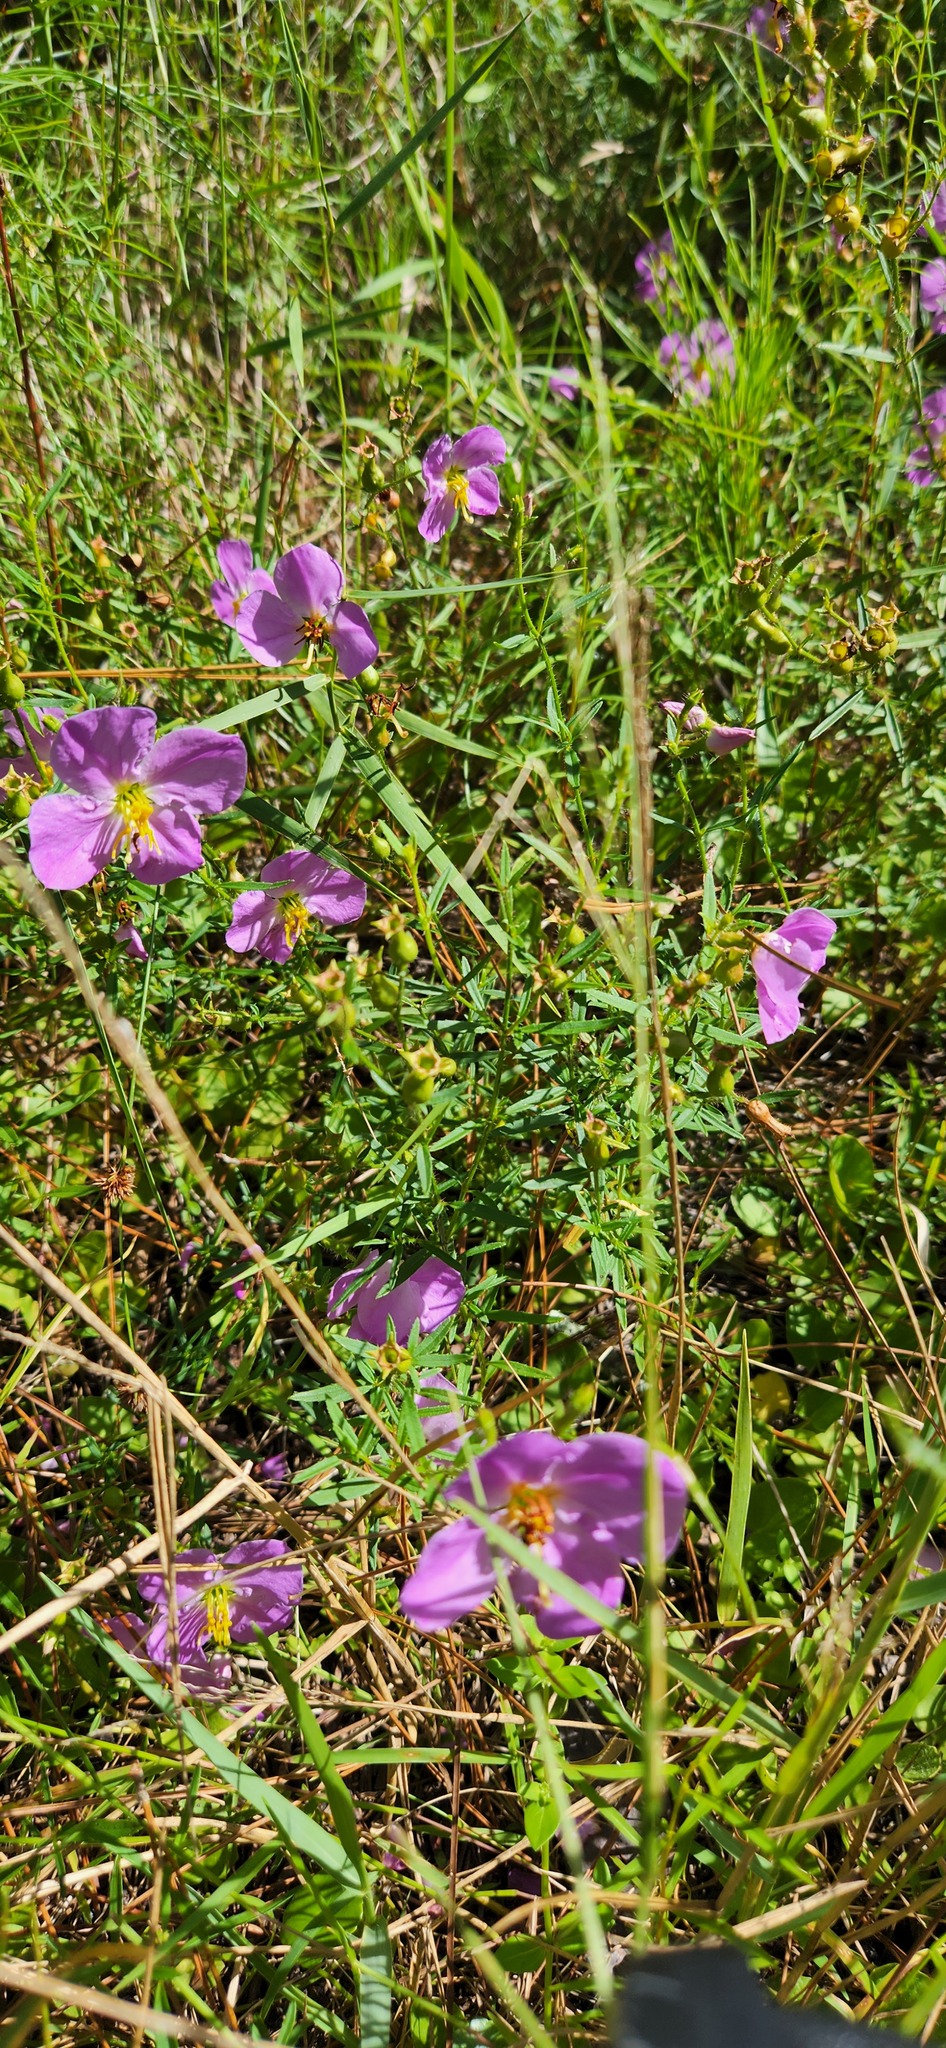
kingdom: Plantae
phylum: Tracheophyta
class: Magnoliopsida
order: Myrtales
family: Melastomataceae
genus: Rhexia
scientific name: Rhexia mariana
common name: Dull meadow-pitcher
